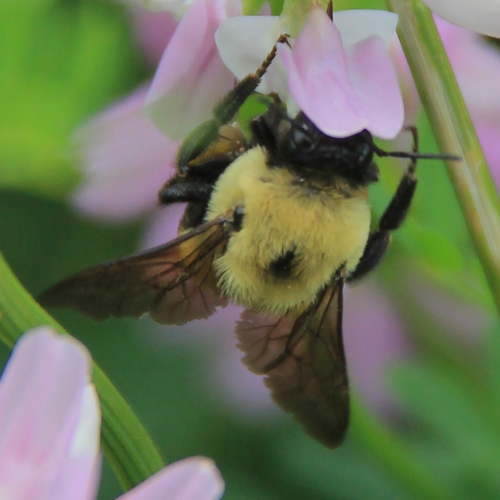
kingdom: Animalia
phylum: Arthropoda
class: Insecta
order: Hymenoptera
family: Apidae
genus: Bombus
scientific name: Bombus griseocollis
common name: Brown-belted bumble bee
